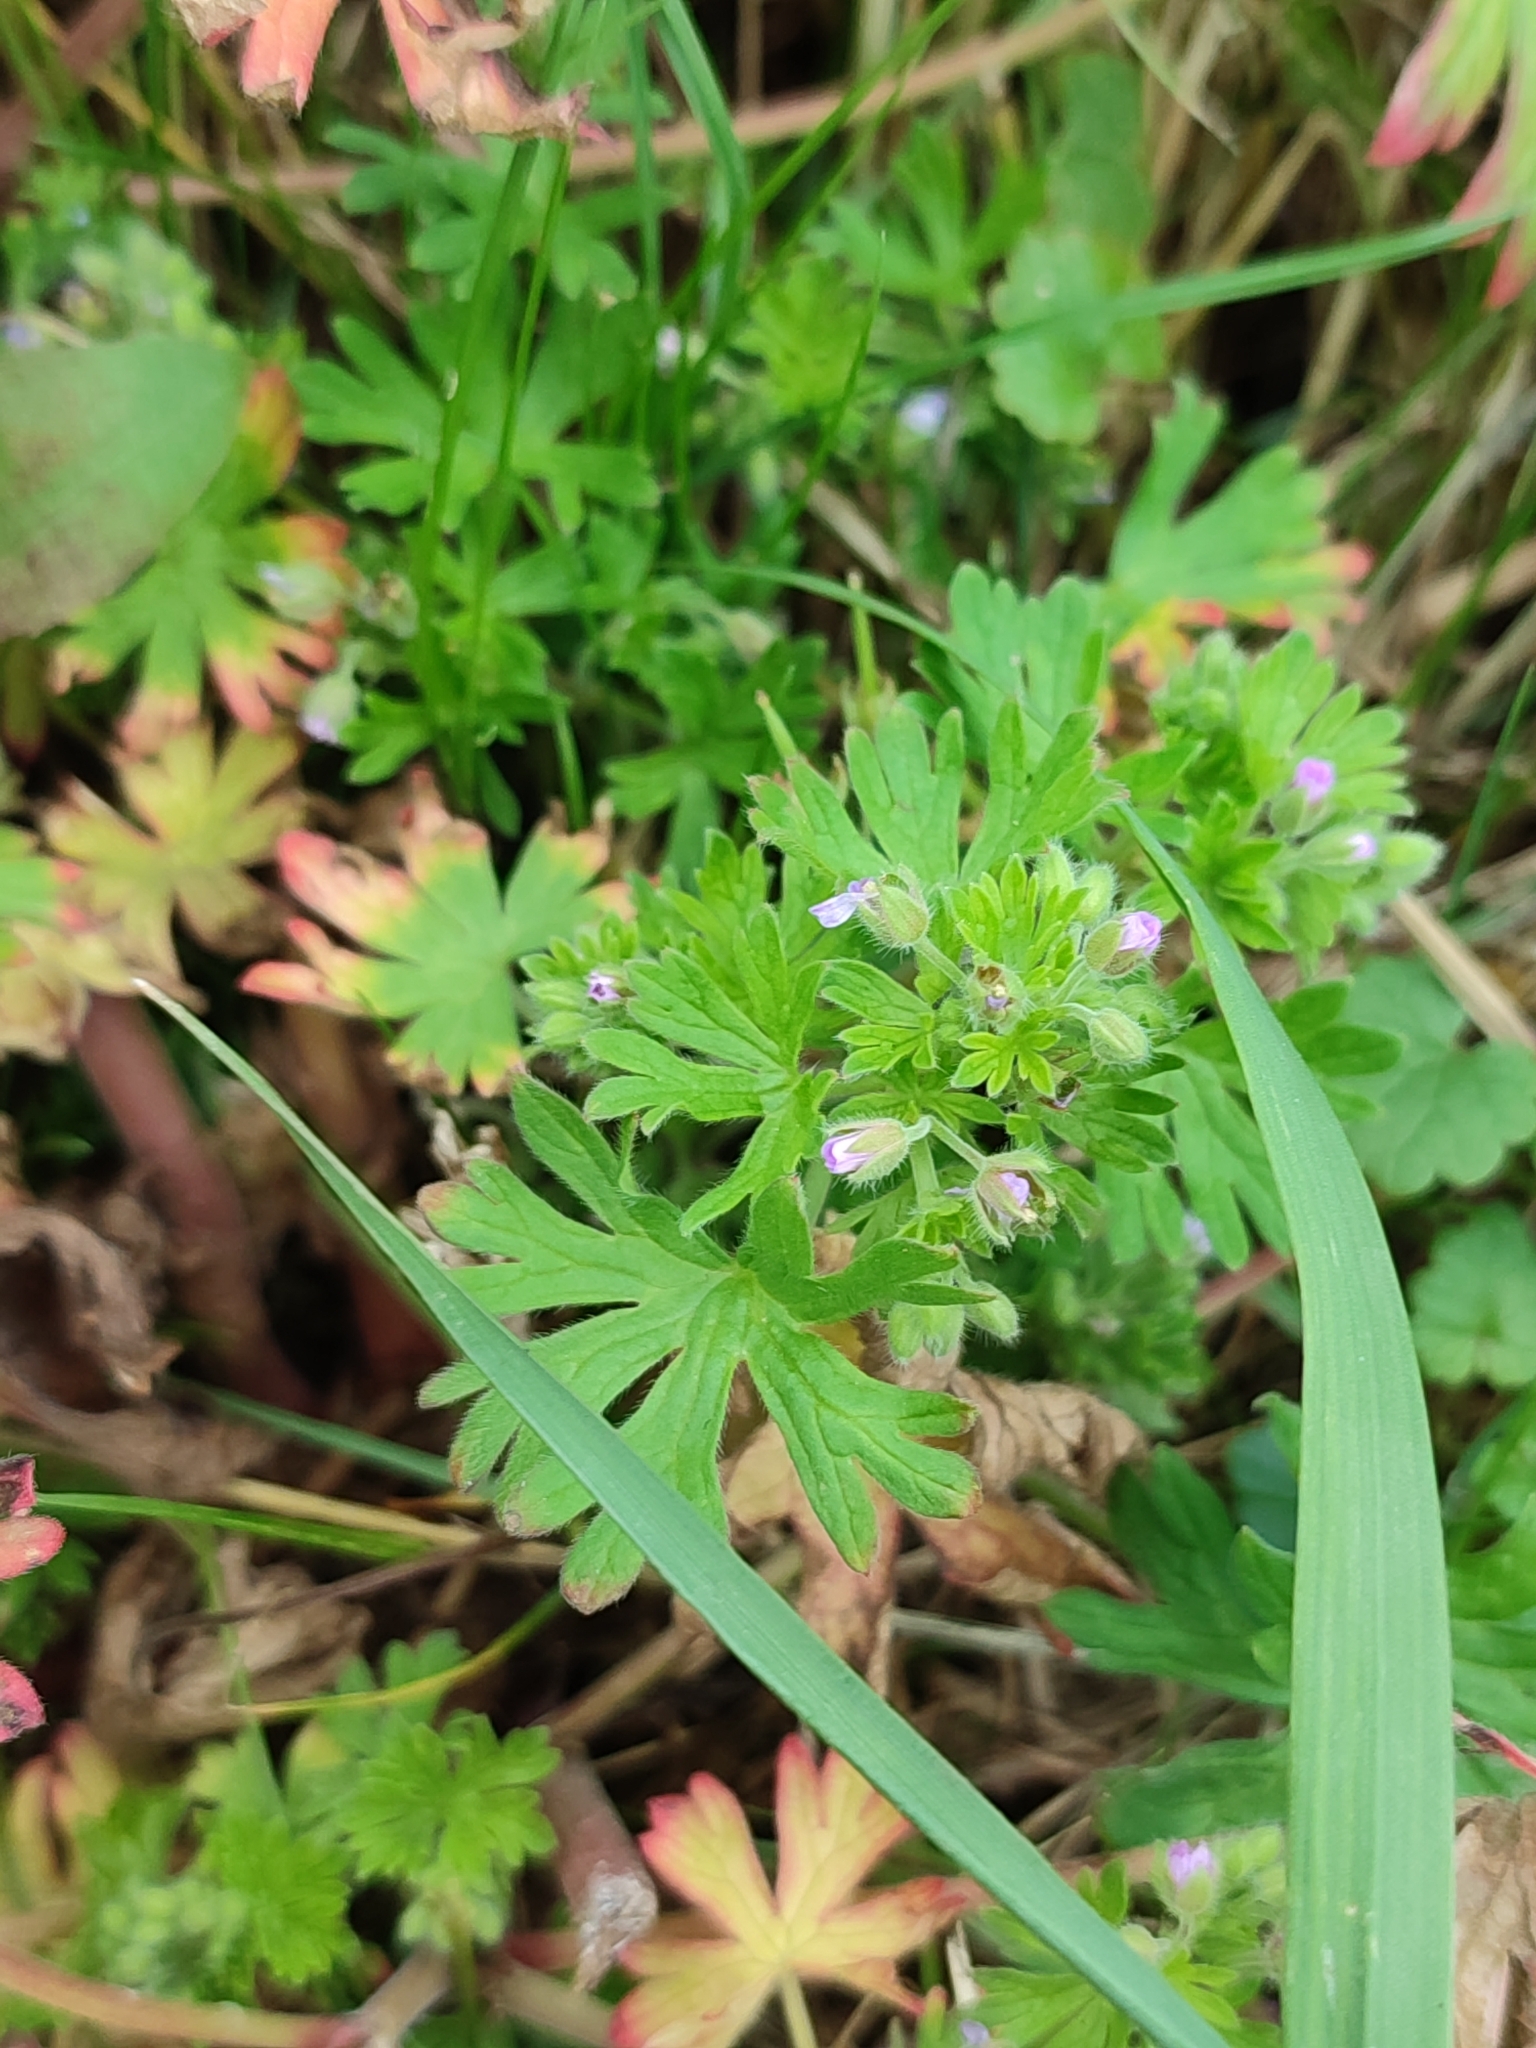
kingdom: Plantae
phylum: Tracheophyta
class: Magnoliopsida
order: Geraniales
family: Geraniaceae
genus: Geranium
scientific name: Geranium pusillum
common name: Small geranium
